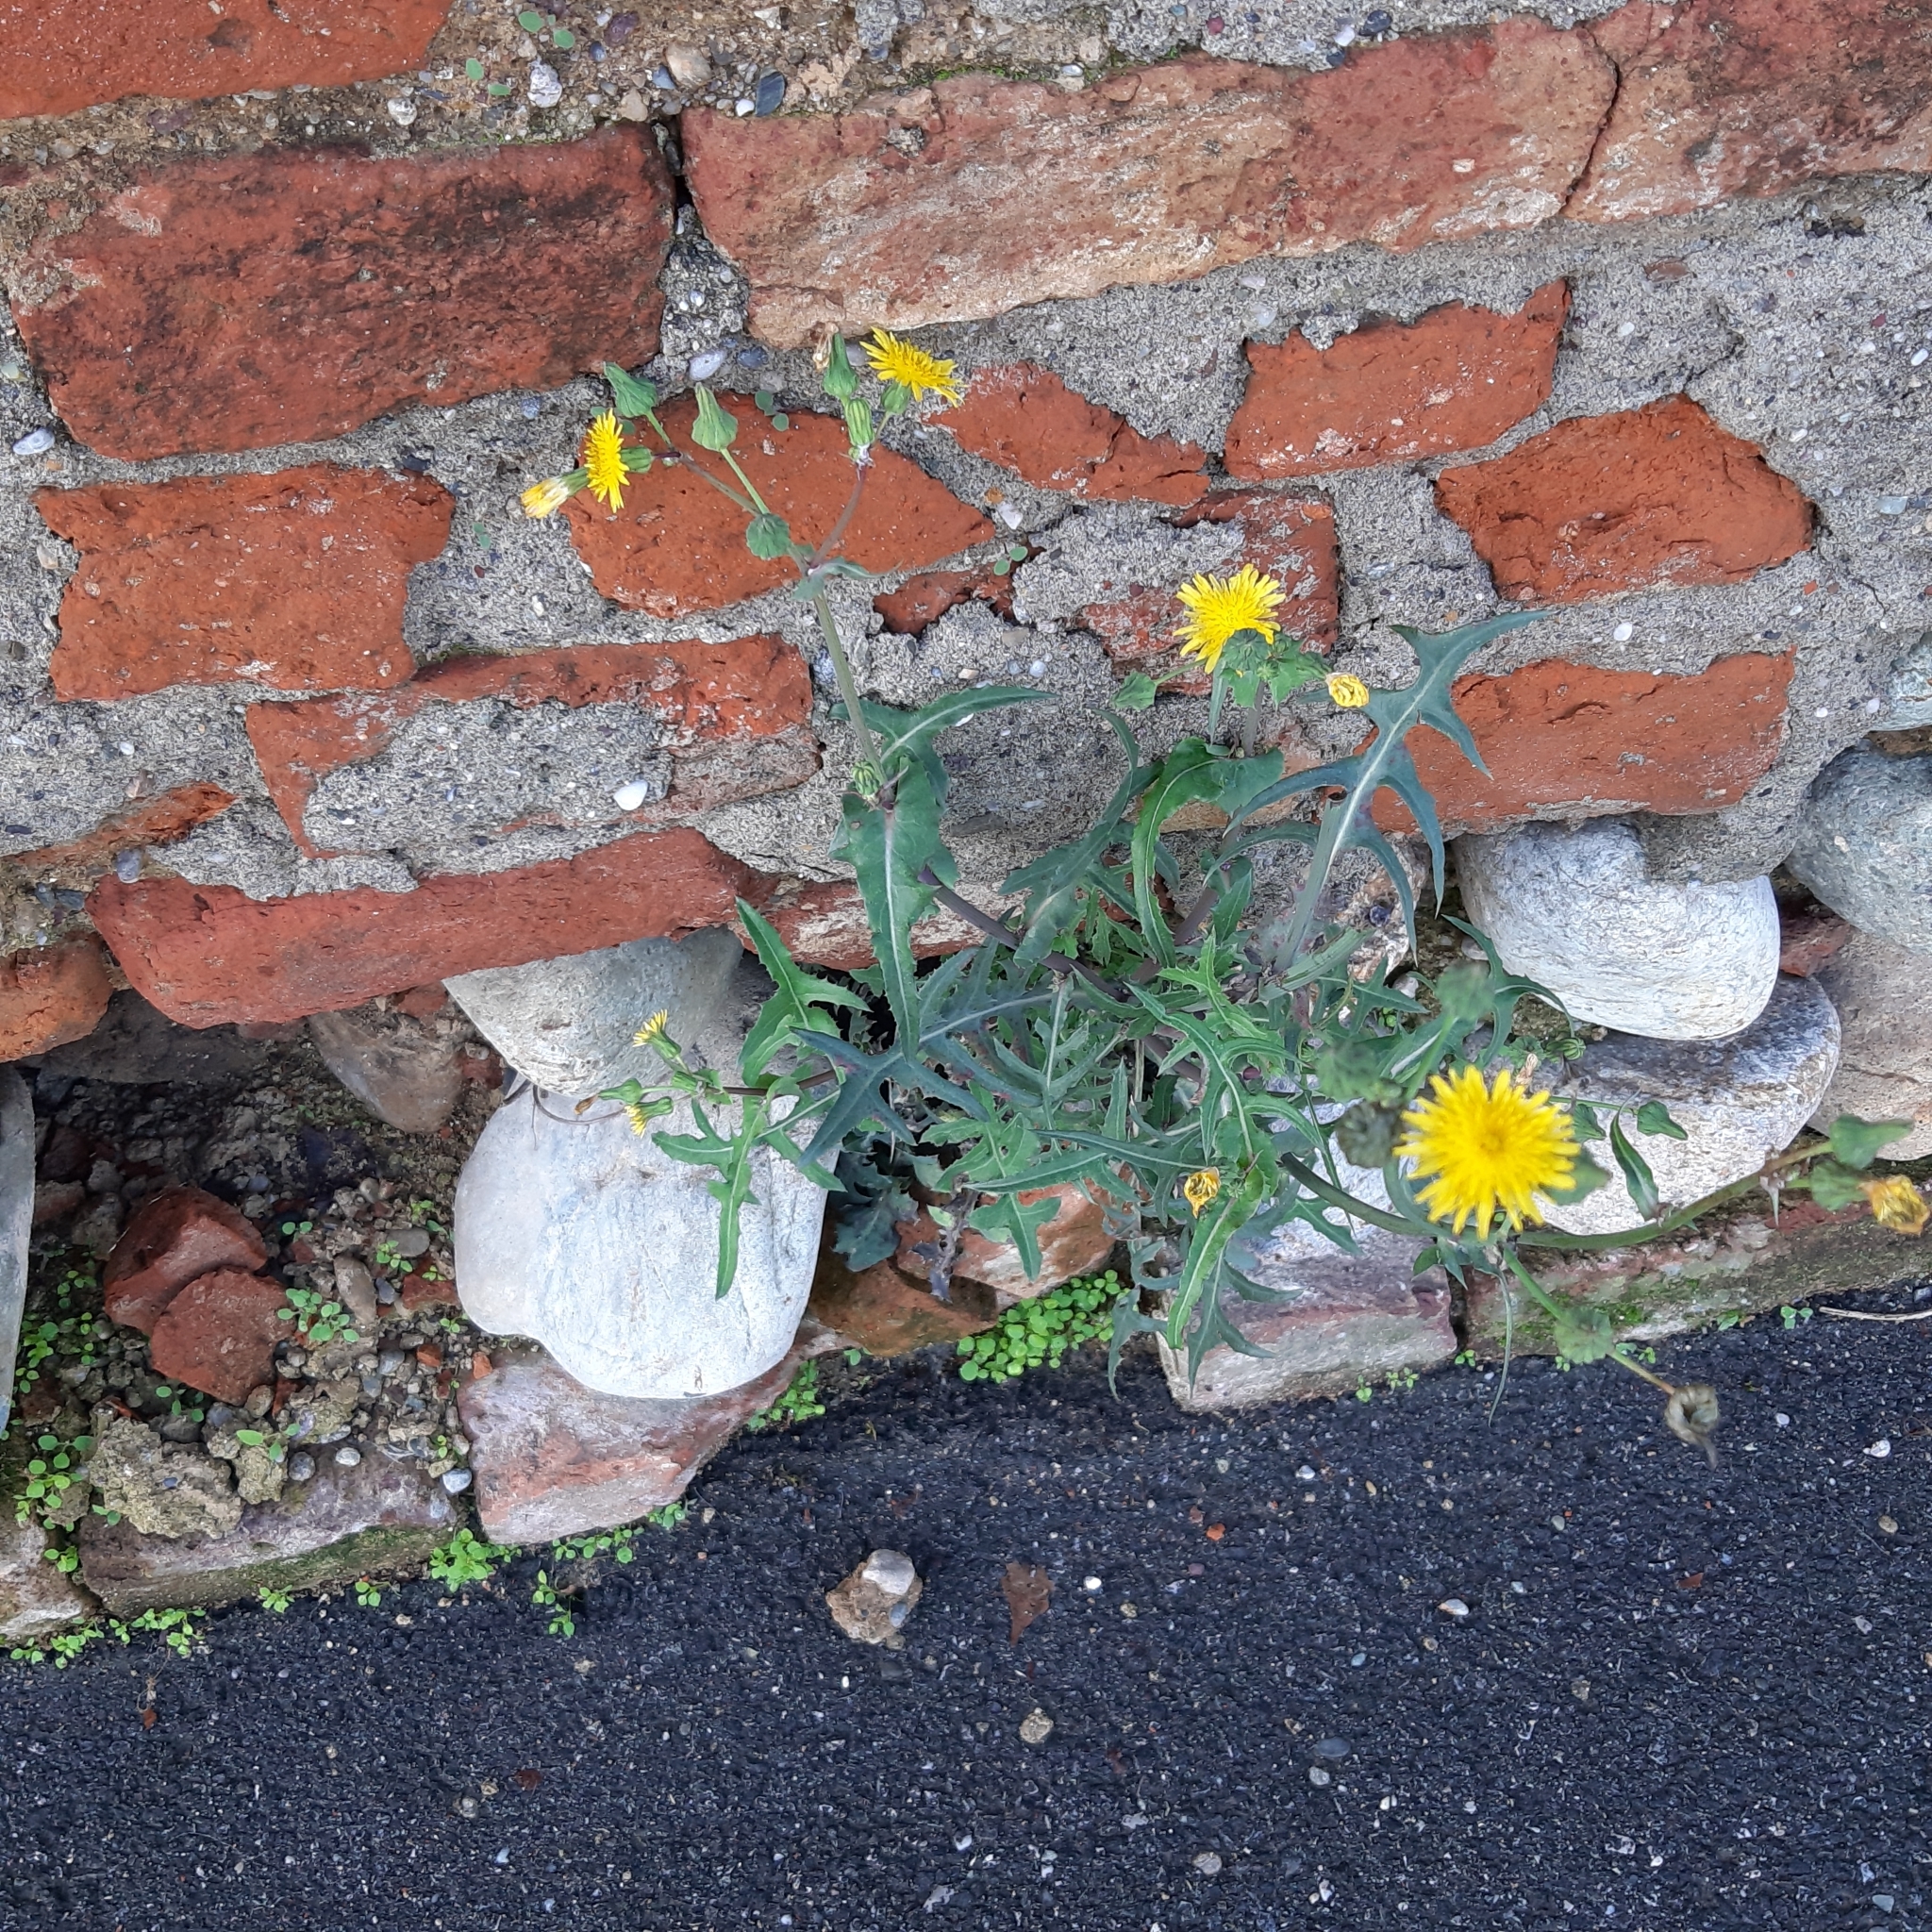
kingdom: Plantae
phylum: Tracheophyta
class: Magnoliopsida
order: Asterales
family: Asteraceae
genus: Sonchus
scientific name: Sonchus oleraceus
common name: Common sowthistle
